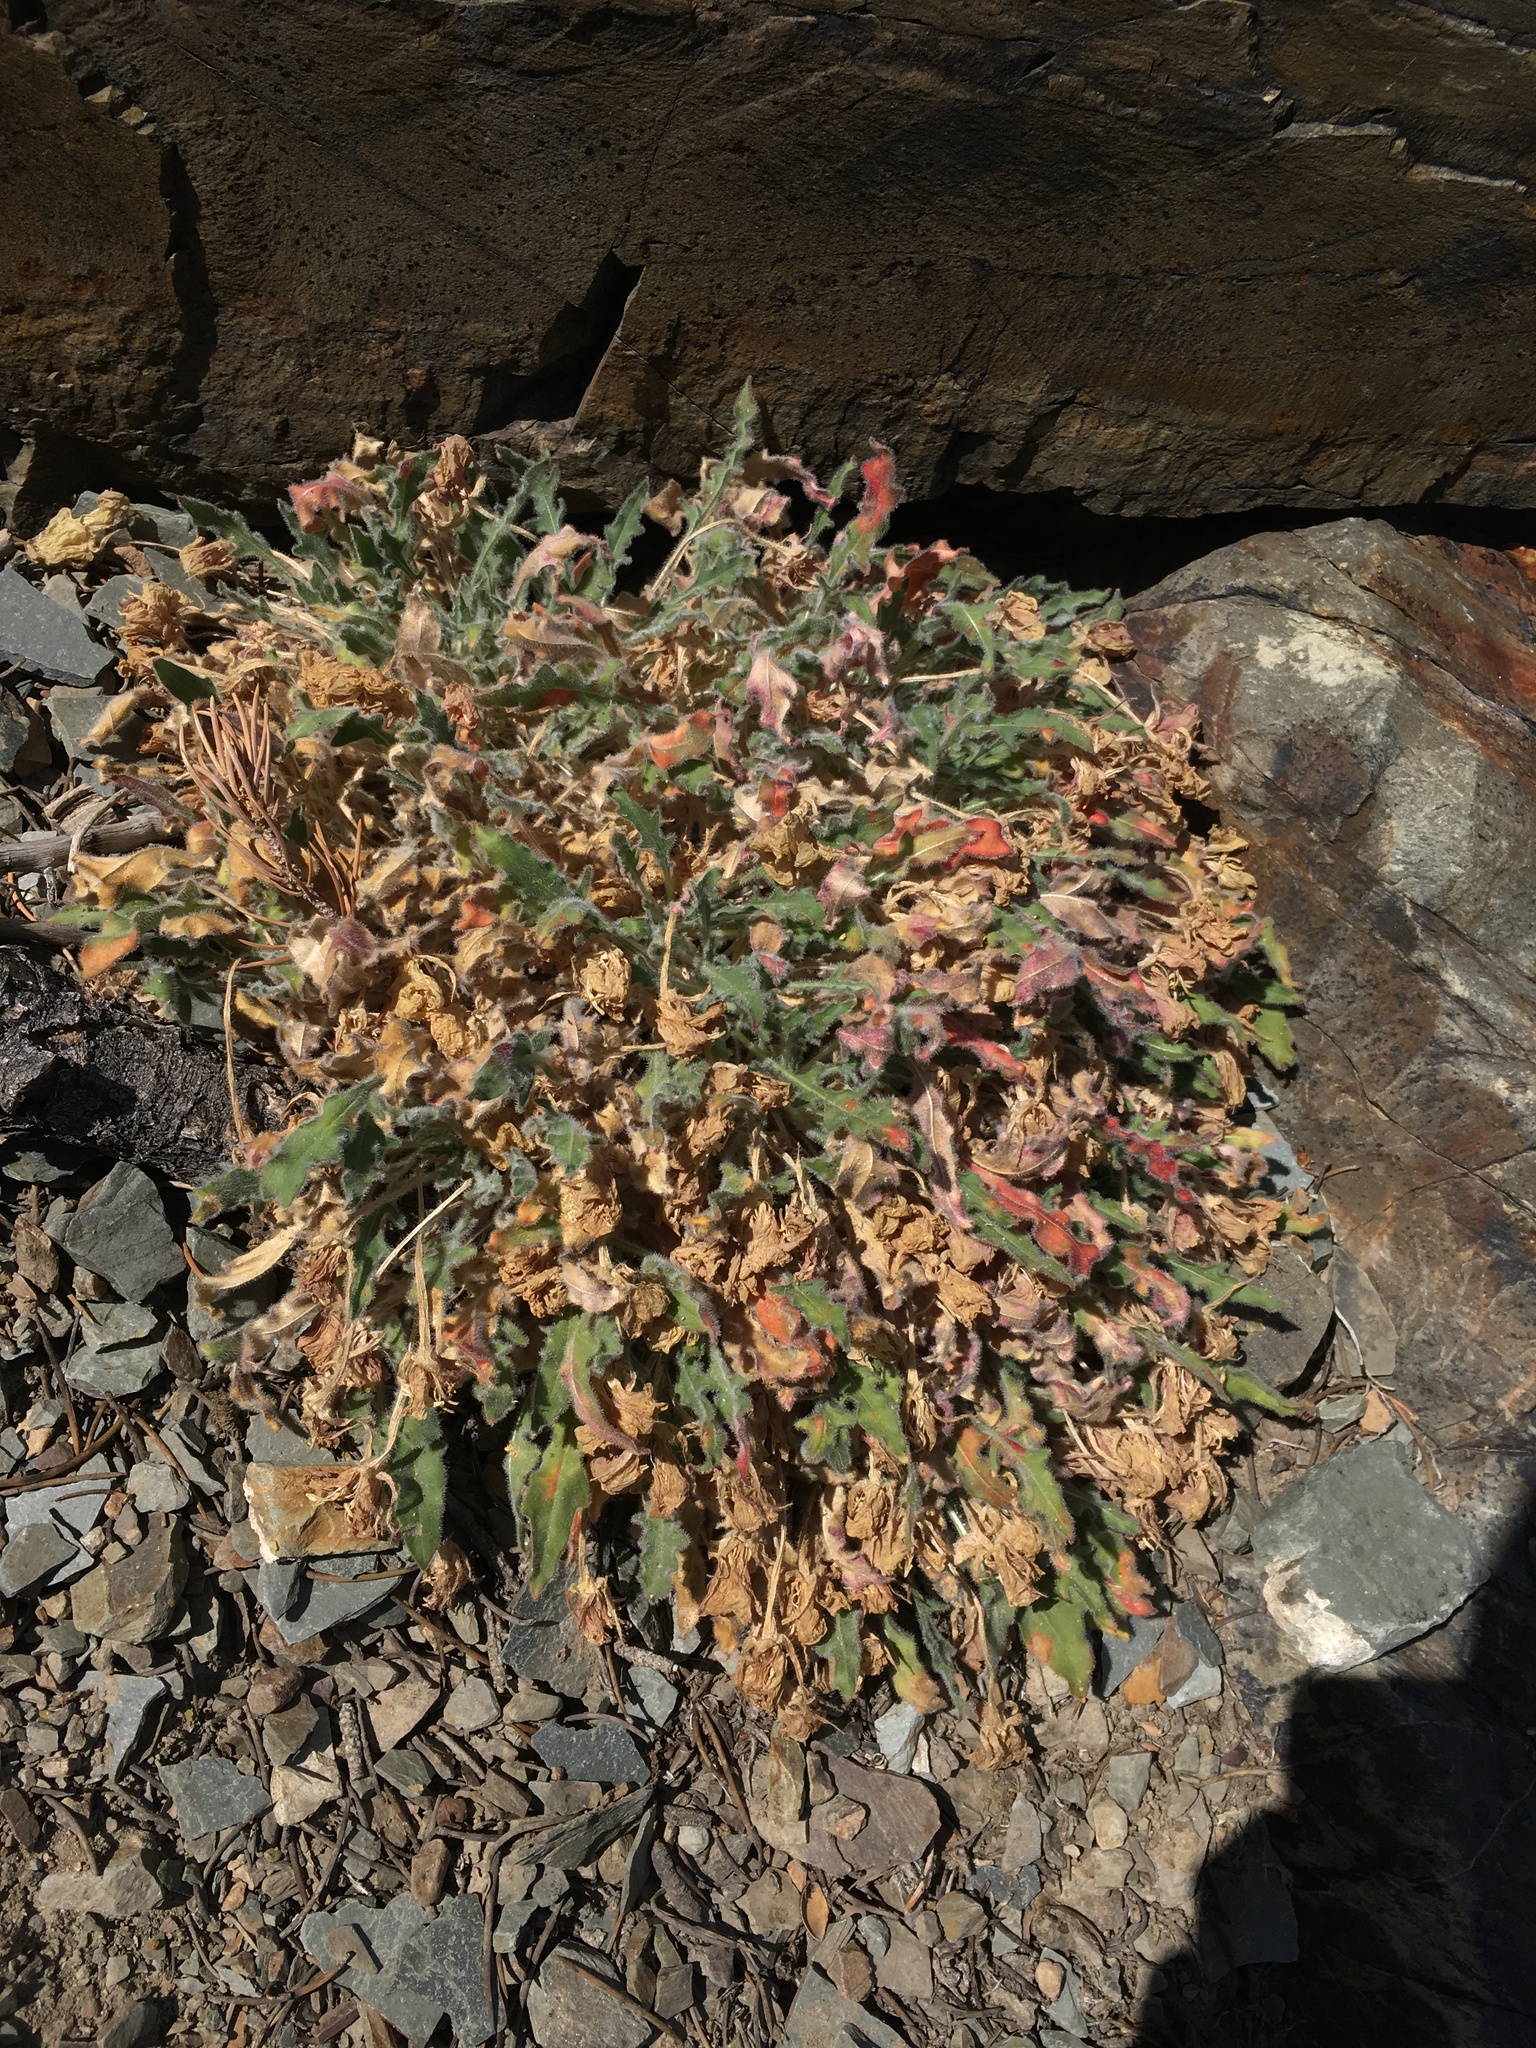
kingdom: Plantae
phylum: Tracheophyta
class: Magnoliopsida
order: Myrtales
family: Onagraceae
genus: Oenothera
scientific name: Oenothera cespitosa
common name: Tufted evening-primrose
